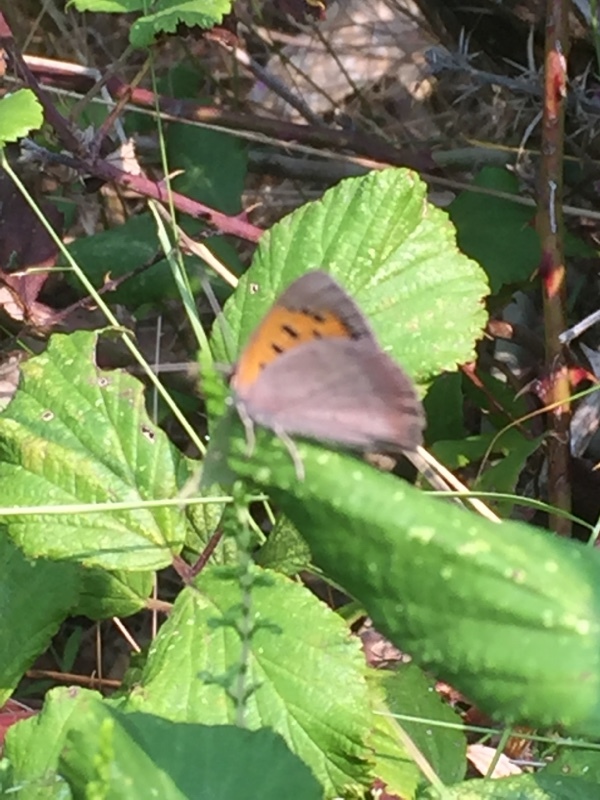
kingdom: Animalia
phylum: Arthropoda
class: Insecta
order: Lepidoptera
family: Lycaenidae
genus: Lycaena
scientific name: Lycaena phlaeas
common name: Small copper
